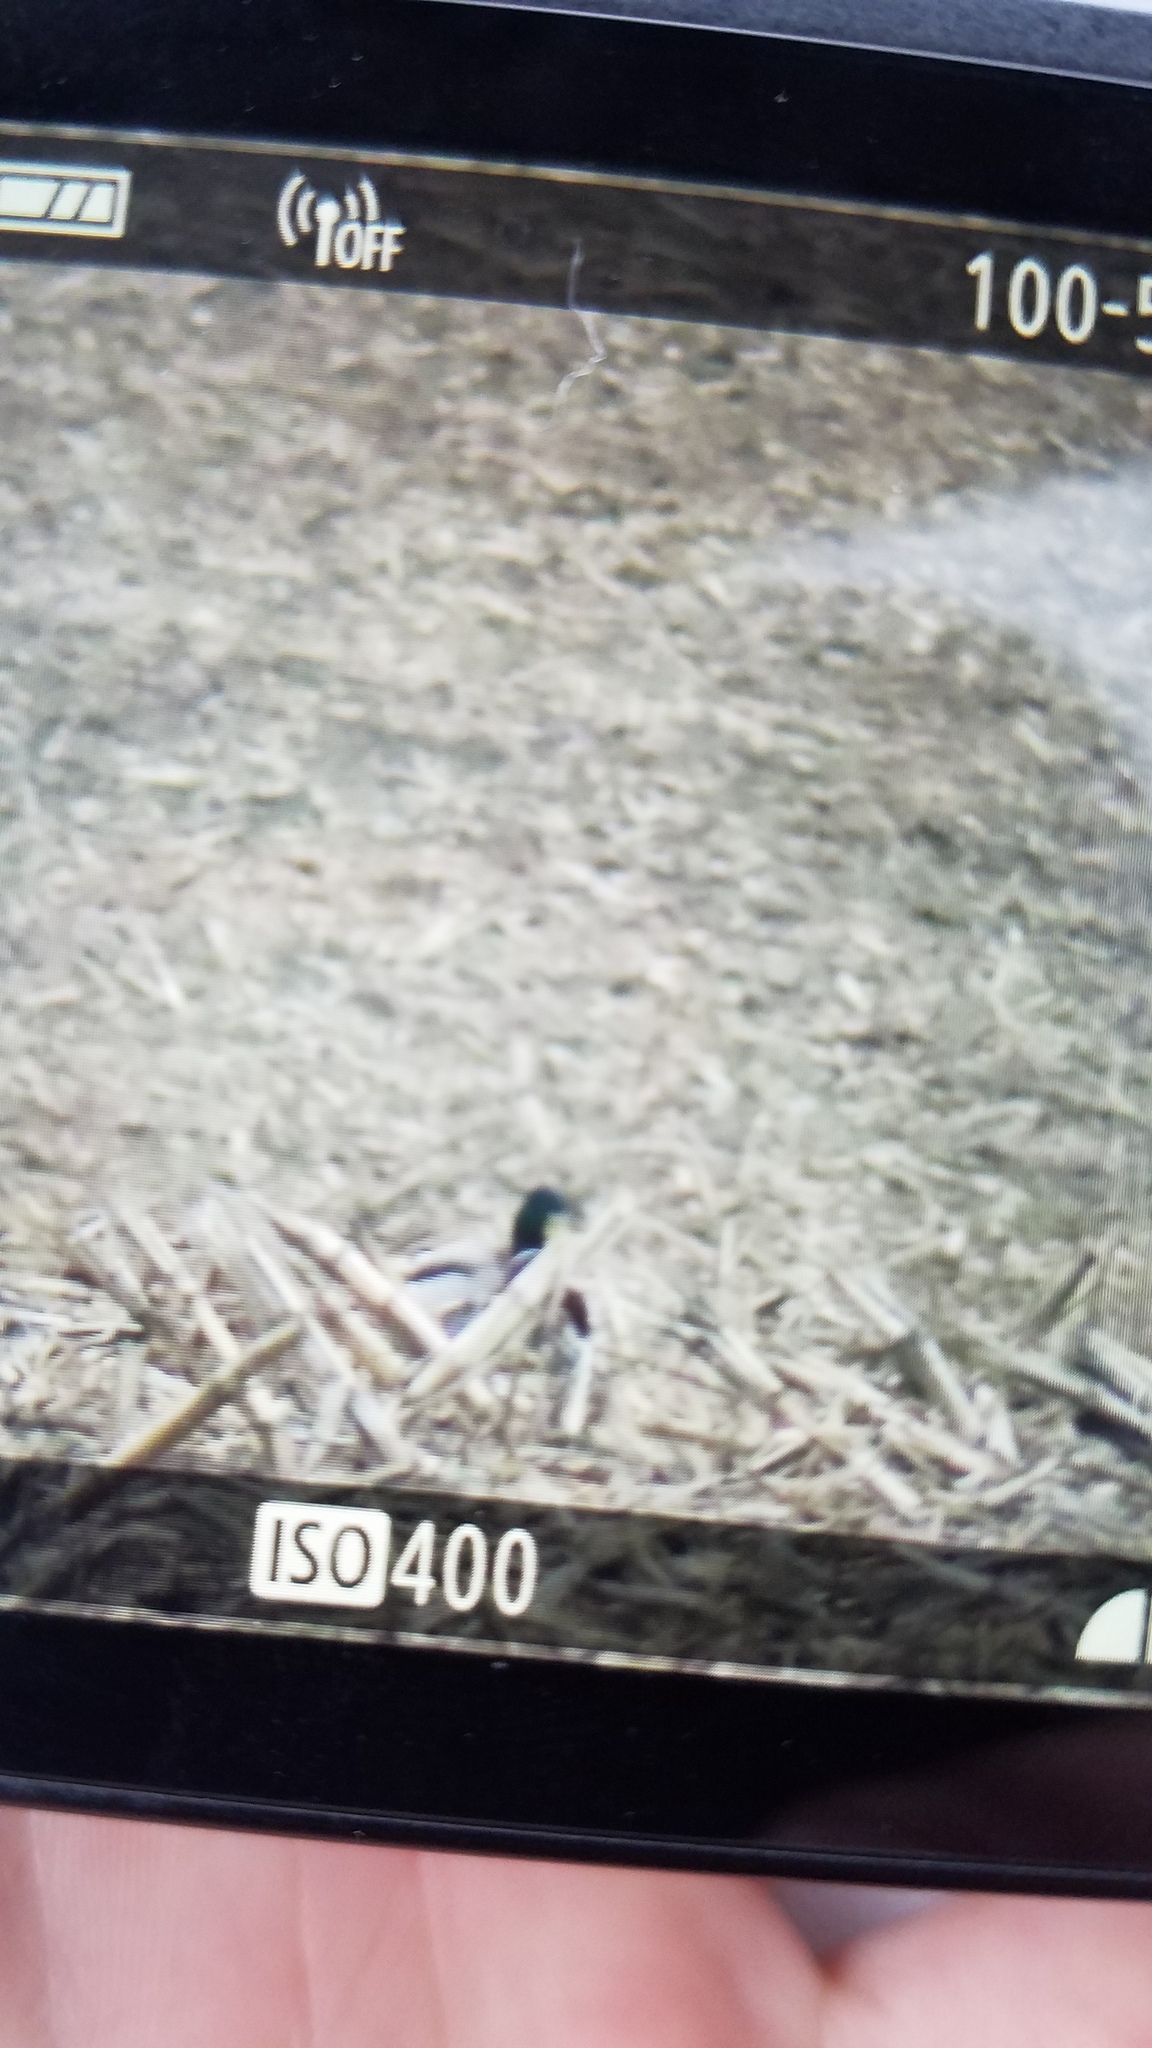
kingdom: Animalia
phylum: Chordata
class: Aves
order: Anseriformes
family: Anatidae
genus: Anas
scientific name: Anas platyrhynchos
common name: Mallard
